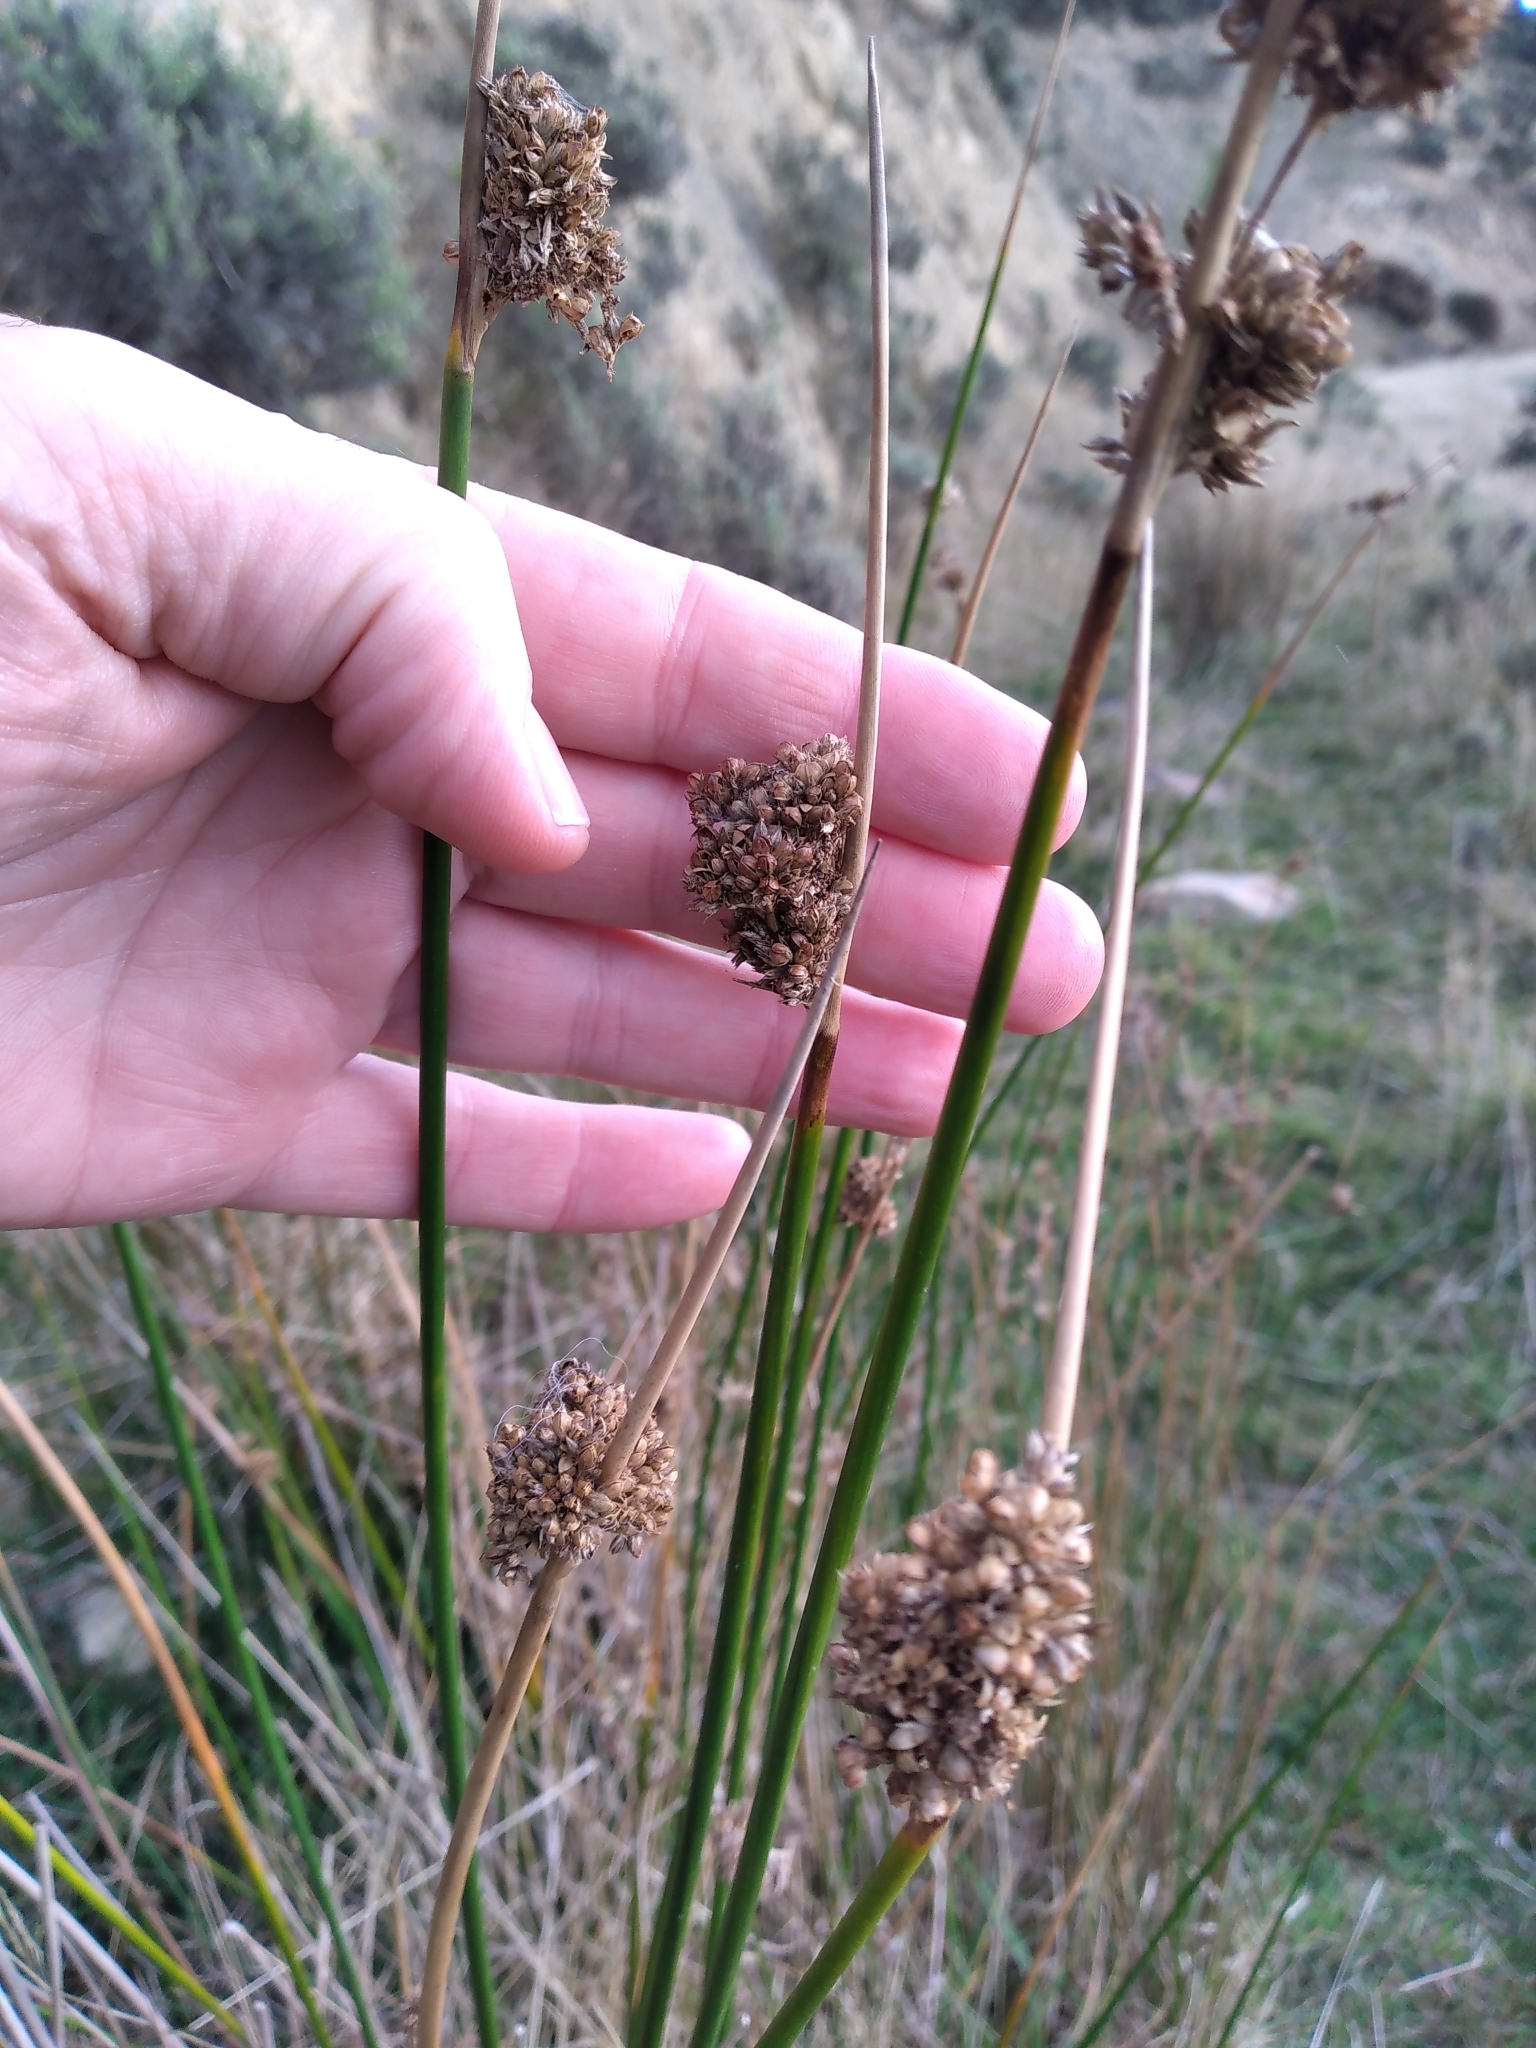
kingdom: Plantae
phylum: Tracheophyta
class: Liliopsida
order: Poales
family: Juncaceae
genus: Juncus
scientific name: Juncus pallidus
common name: Great soft-rush
